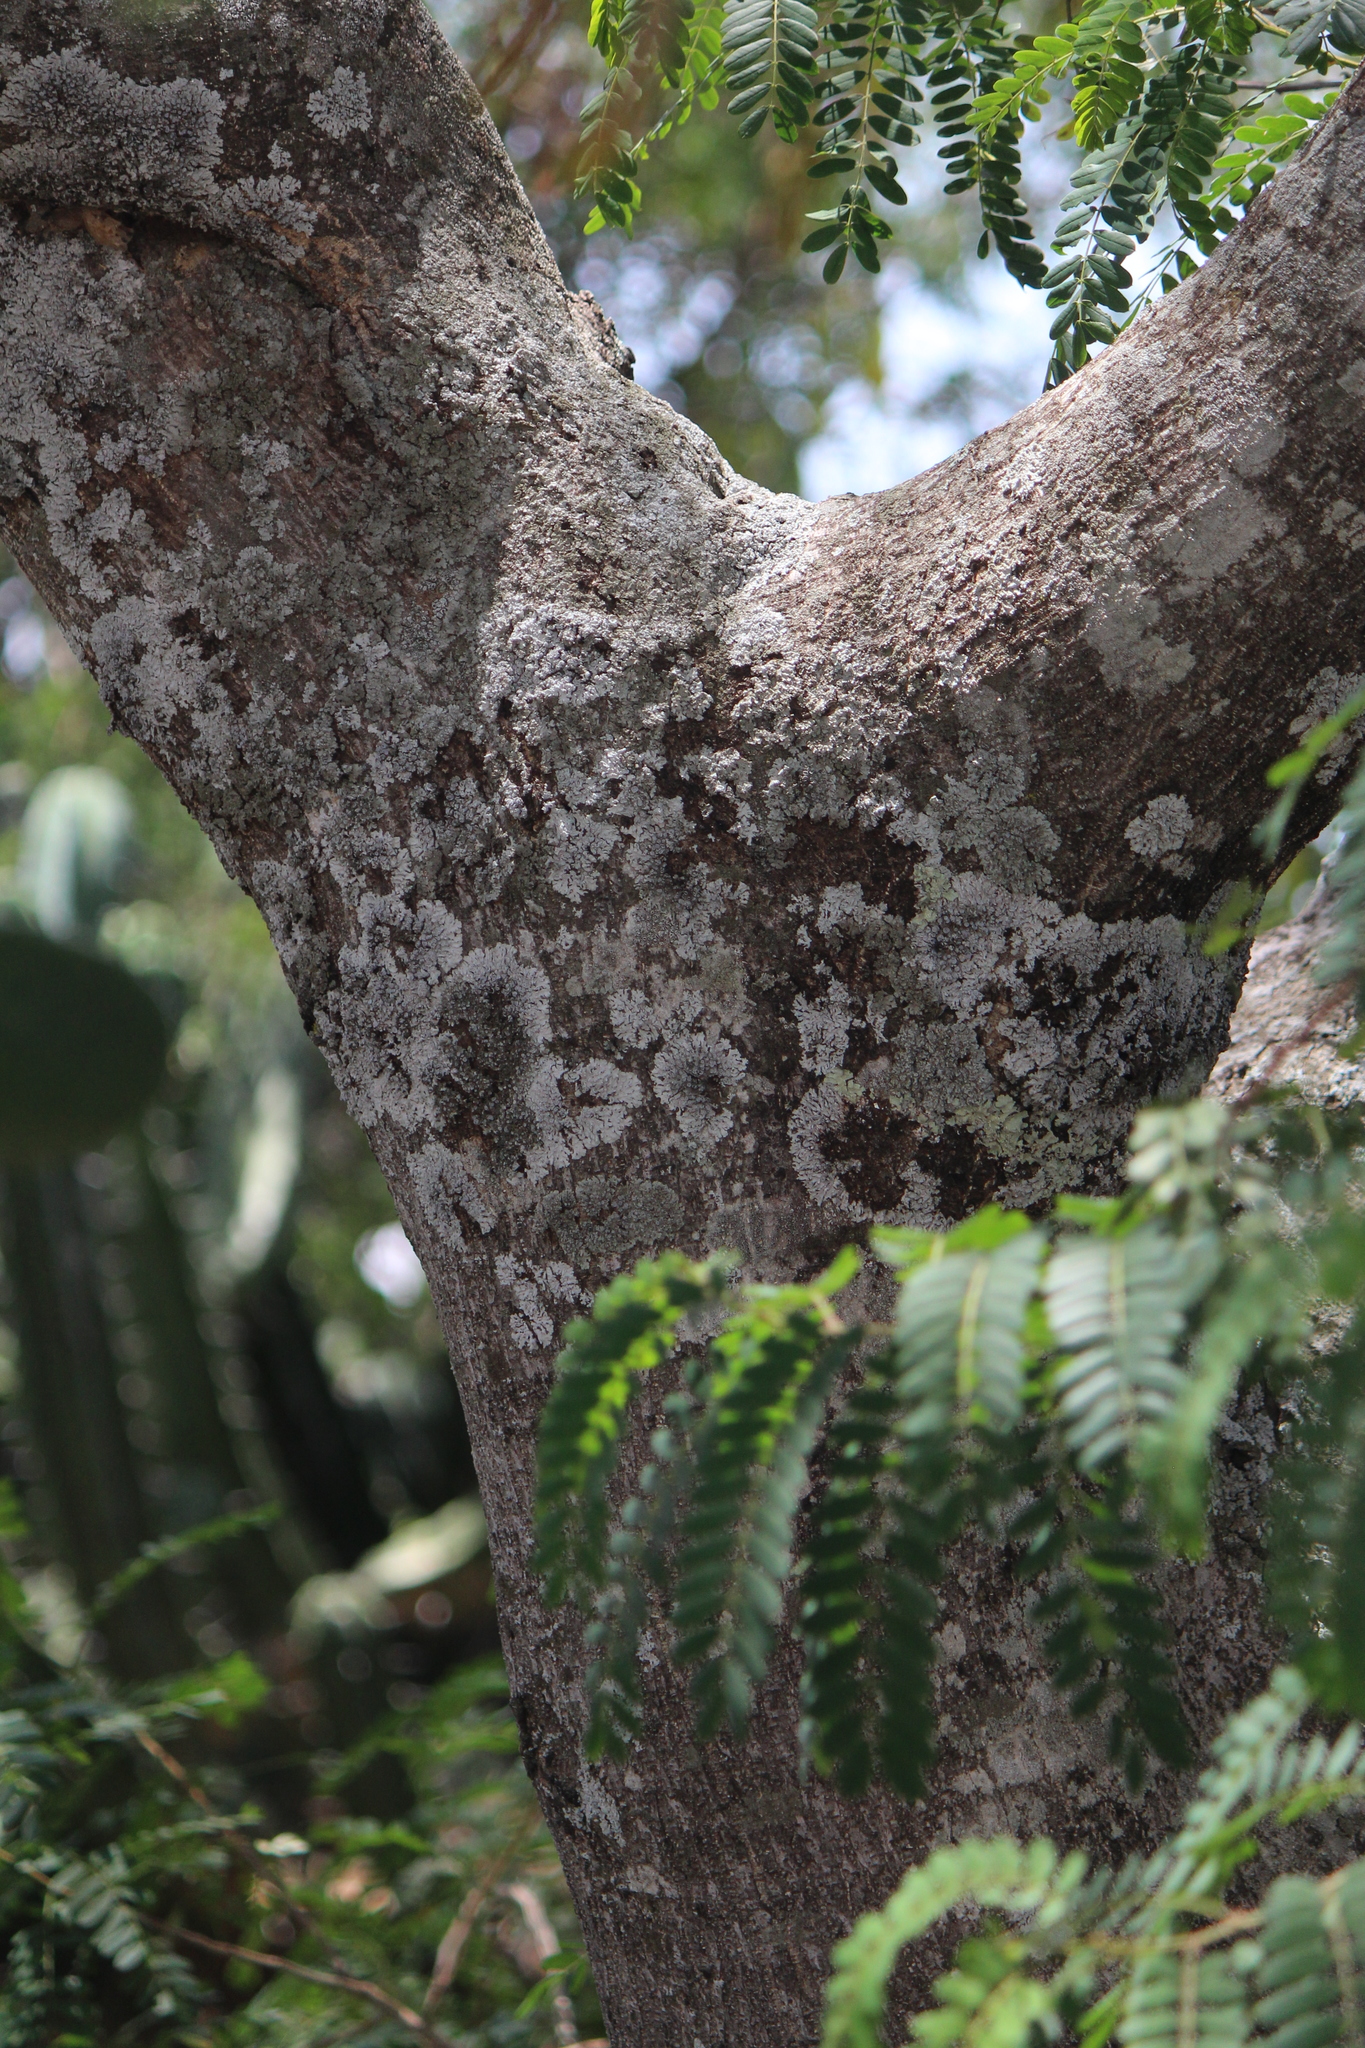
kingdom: Plantae
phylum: Tracheophyta
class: Magnoliopsida
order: Fabales
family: Fabaceae
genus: Senna
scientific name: Senna polyantha
